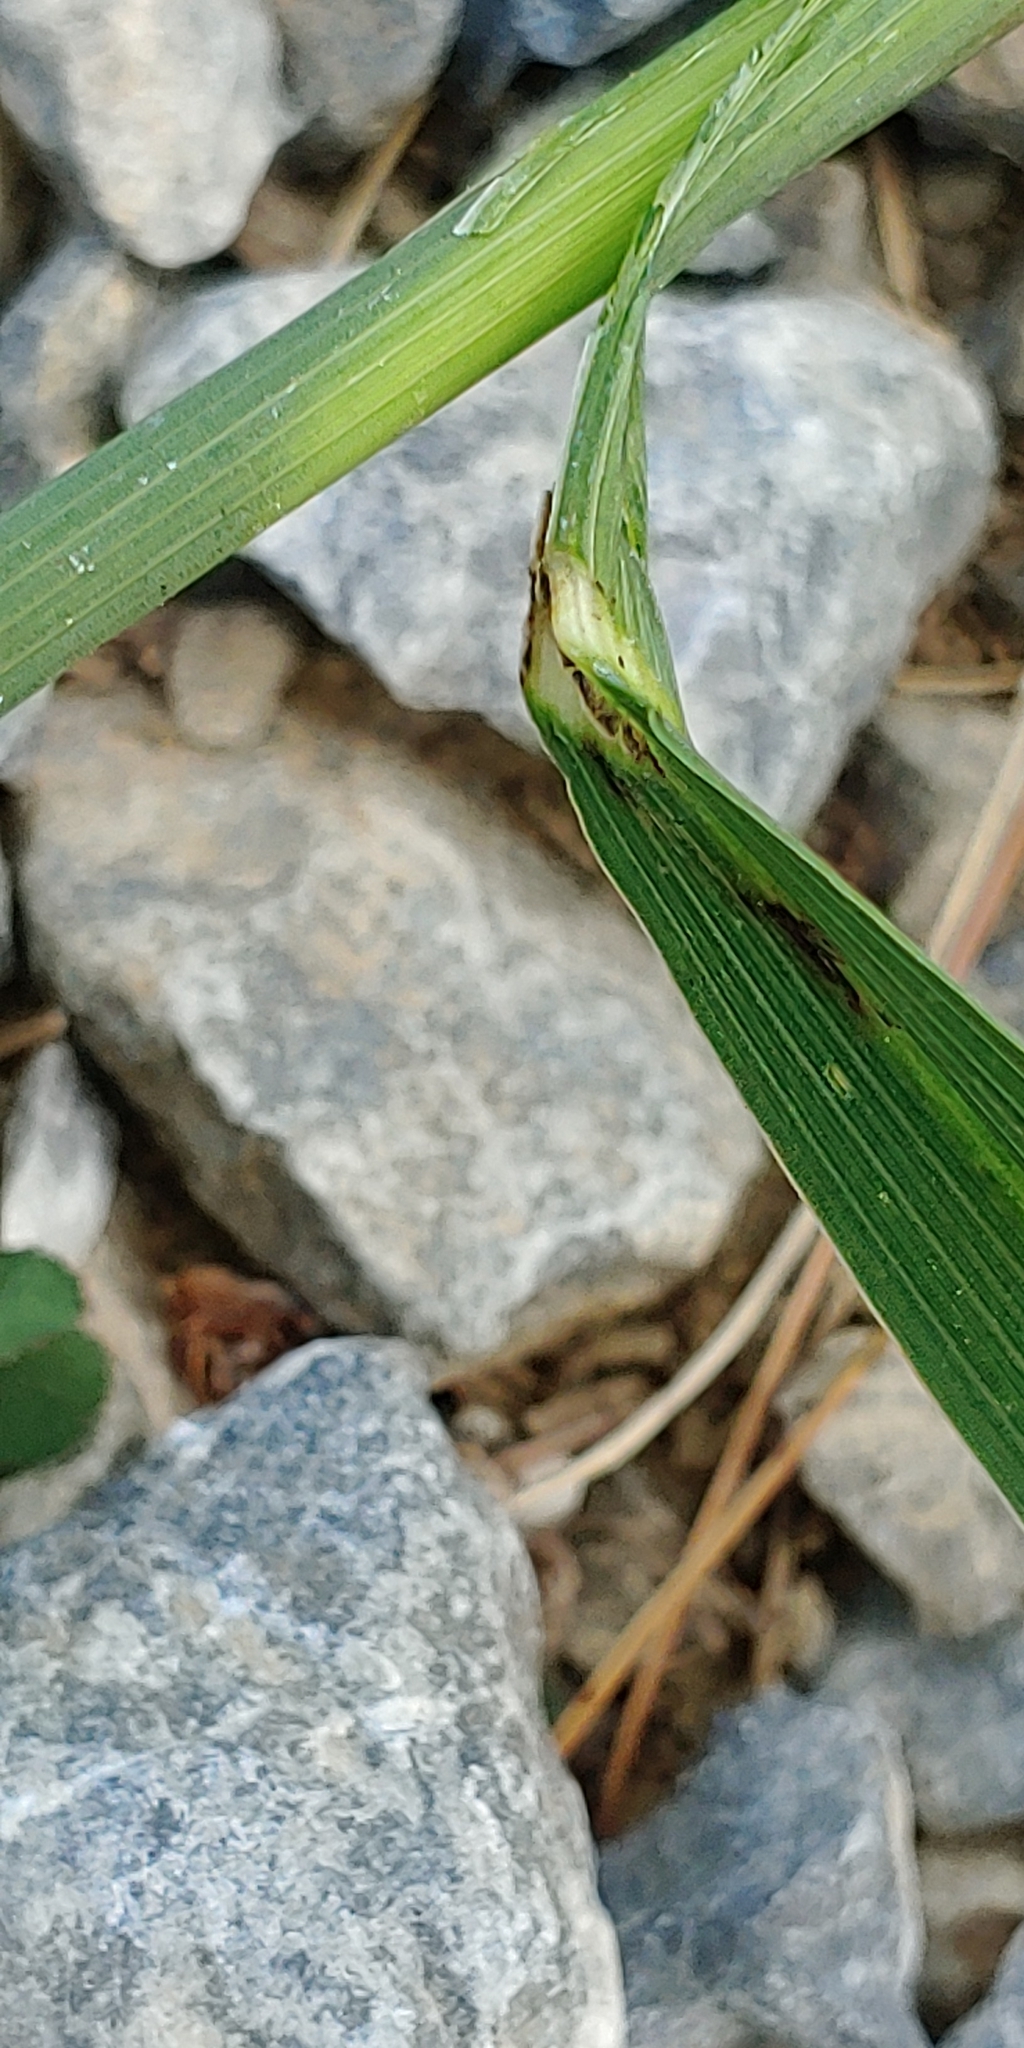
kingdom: Plantae
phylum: Tracheophyta
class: Liliopsida
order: Poales
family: Poaceae
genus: Bromus
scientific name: Bromus inermis
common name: Smooth brome
